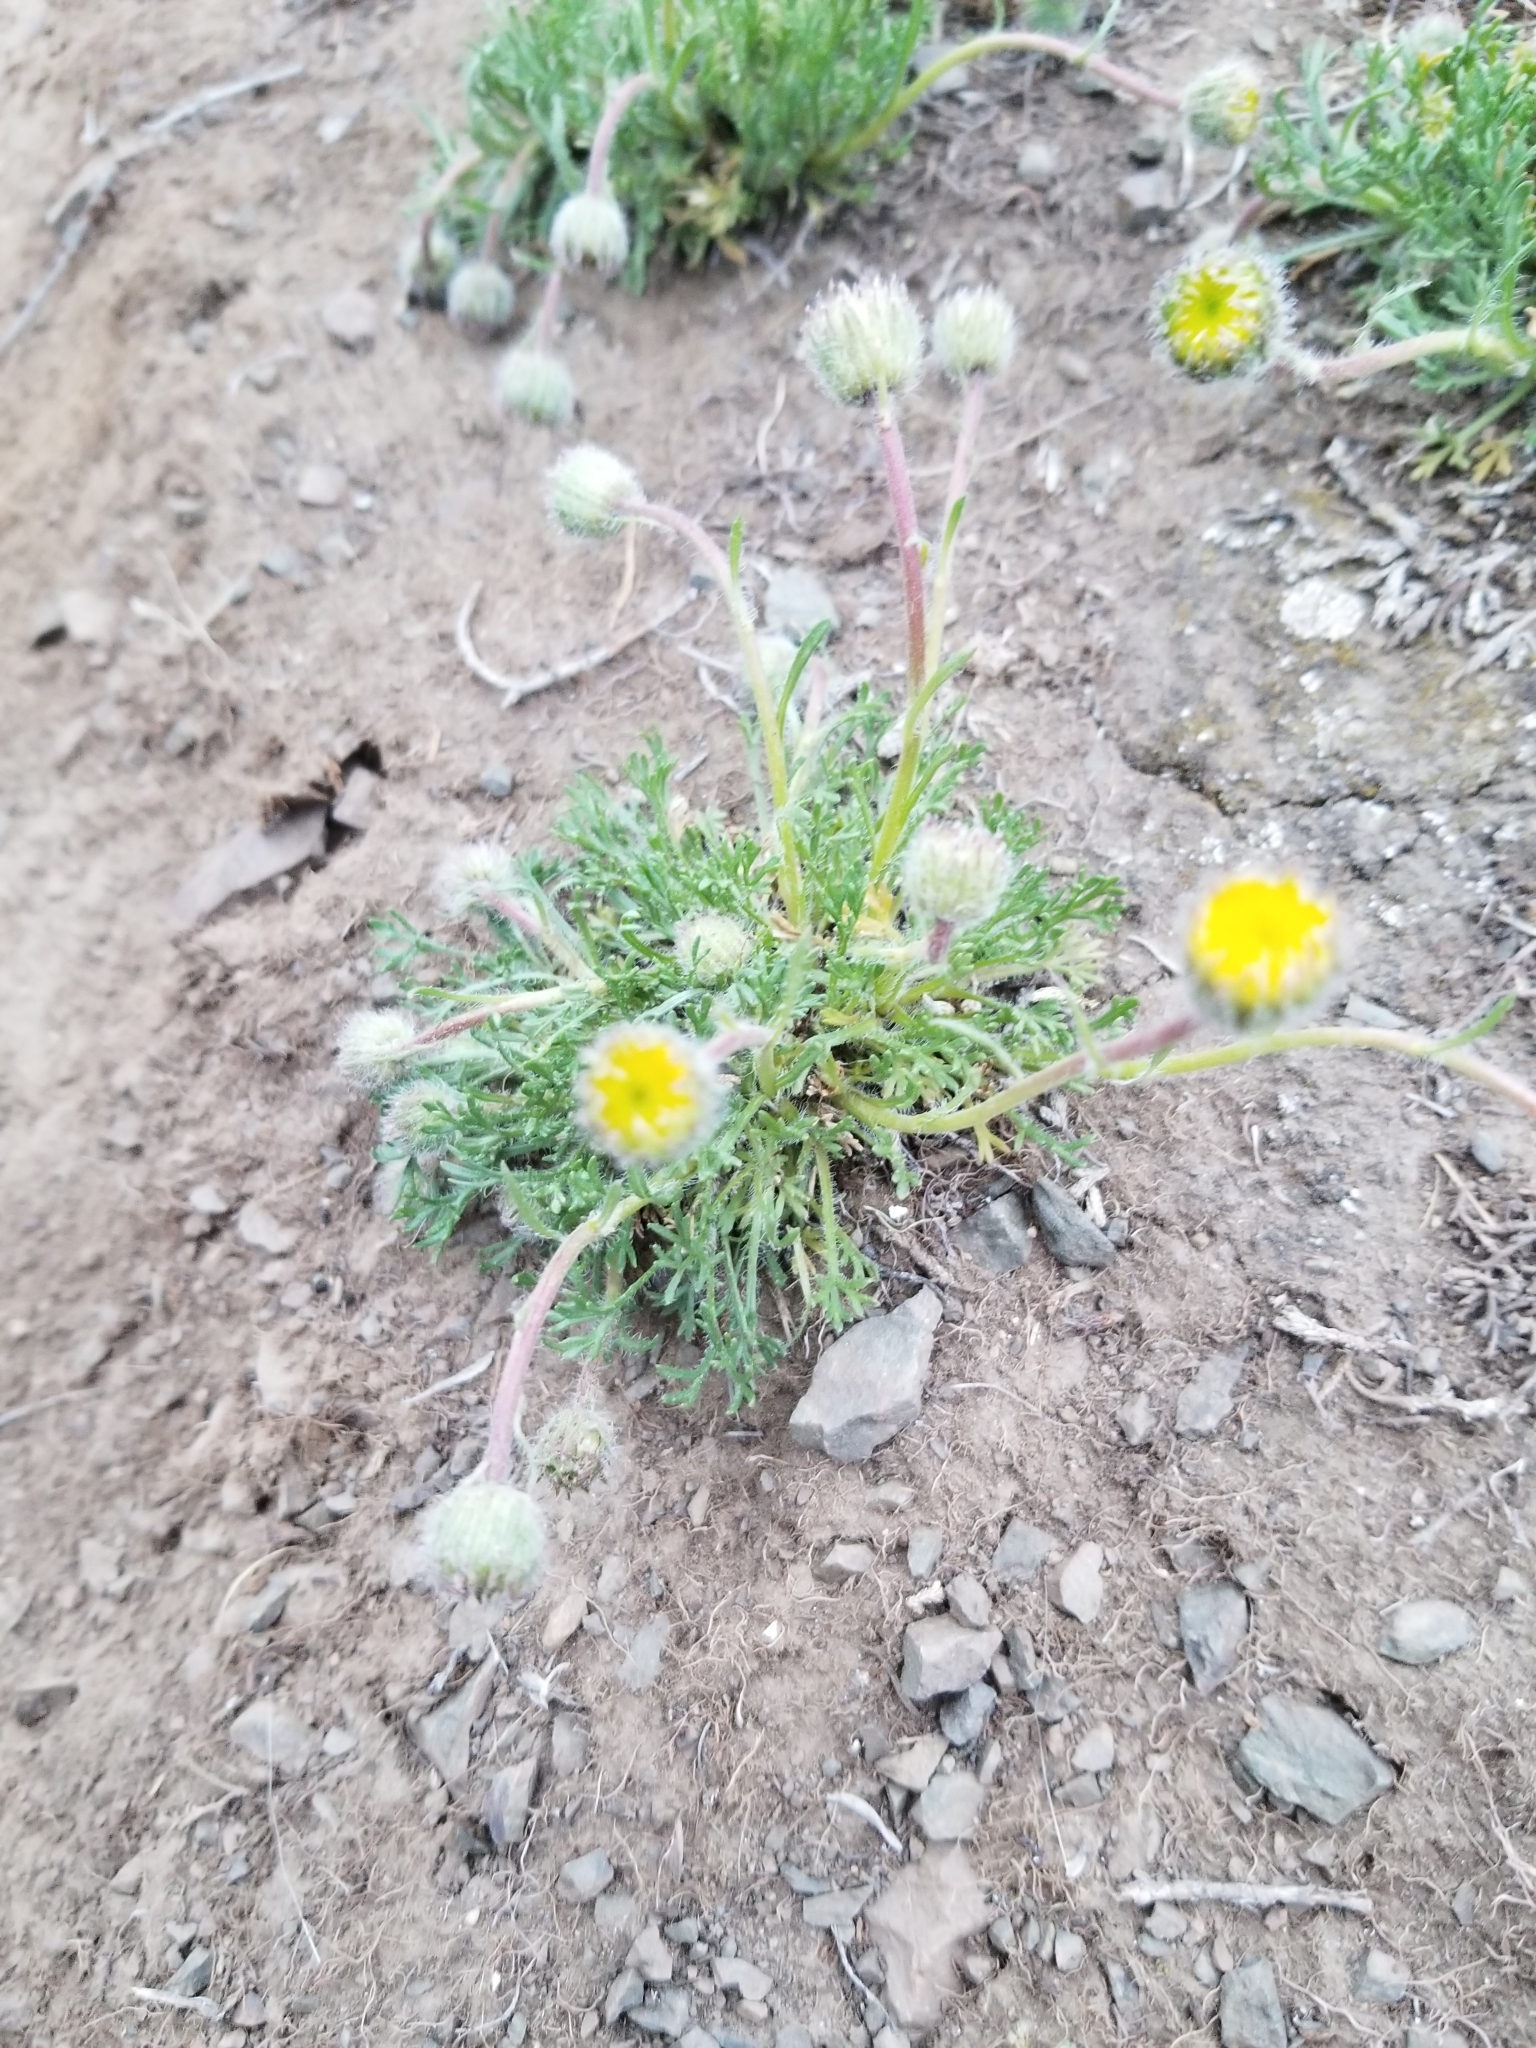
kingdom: Plantae
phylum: Tracheophyta
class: Magnoliopsida
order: Asterales
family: Asteraceae
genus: Erigeron
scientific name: Erigeron compositus
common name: Dwarf mountain fleabane
